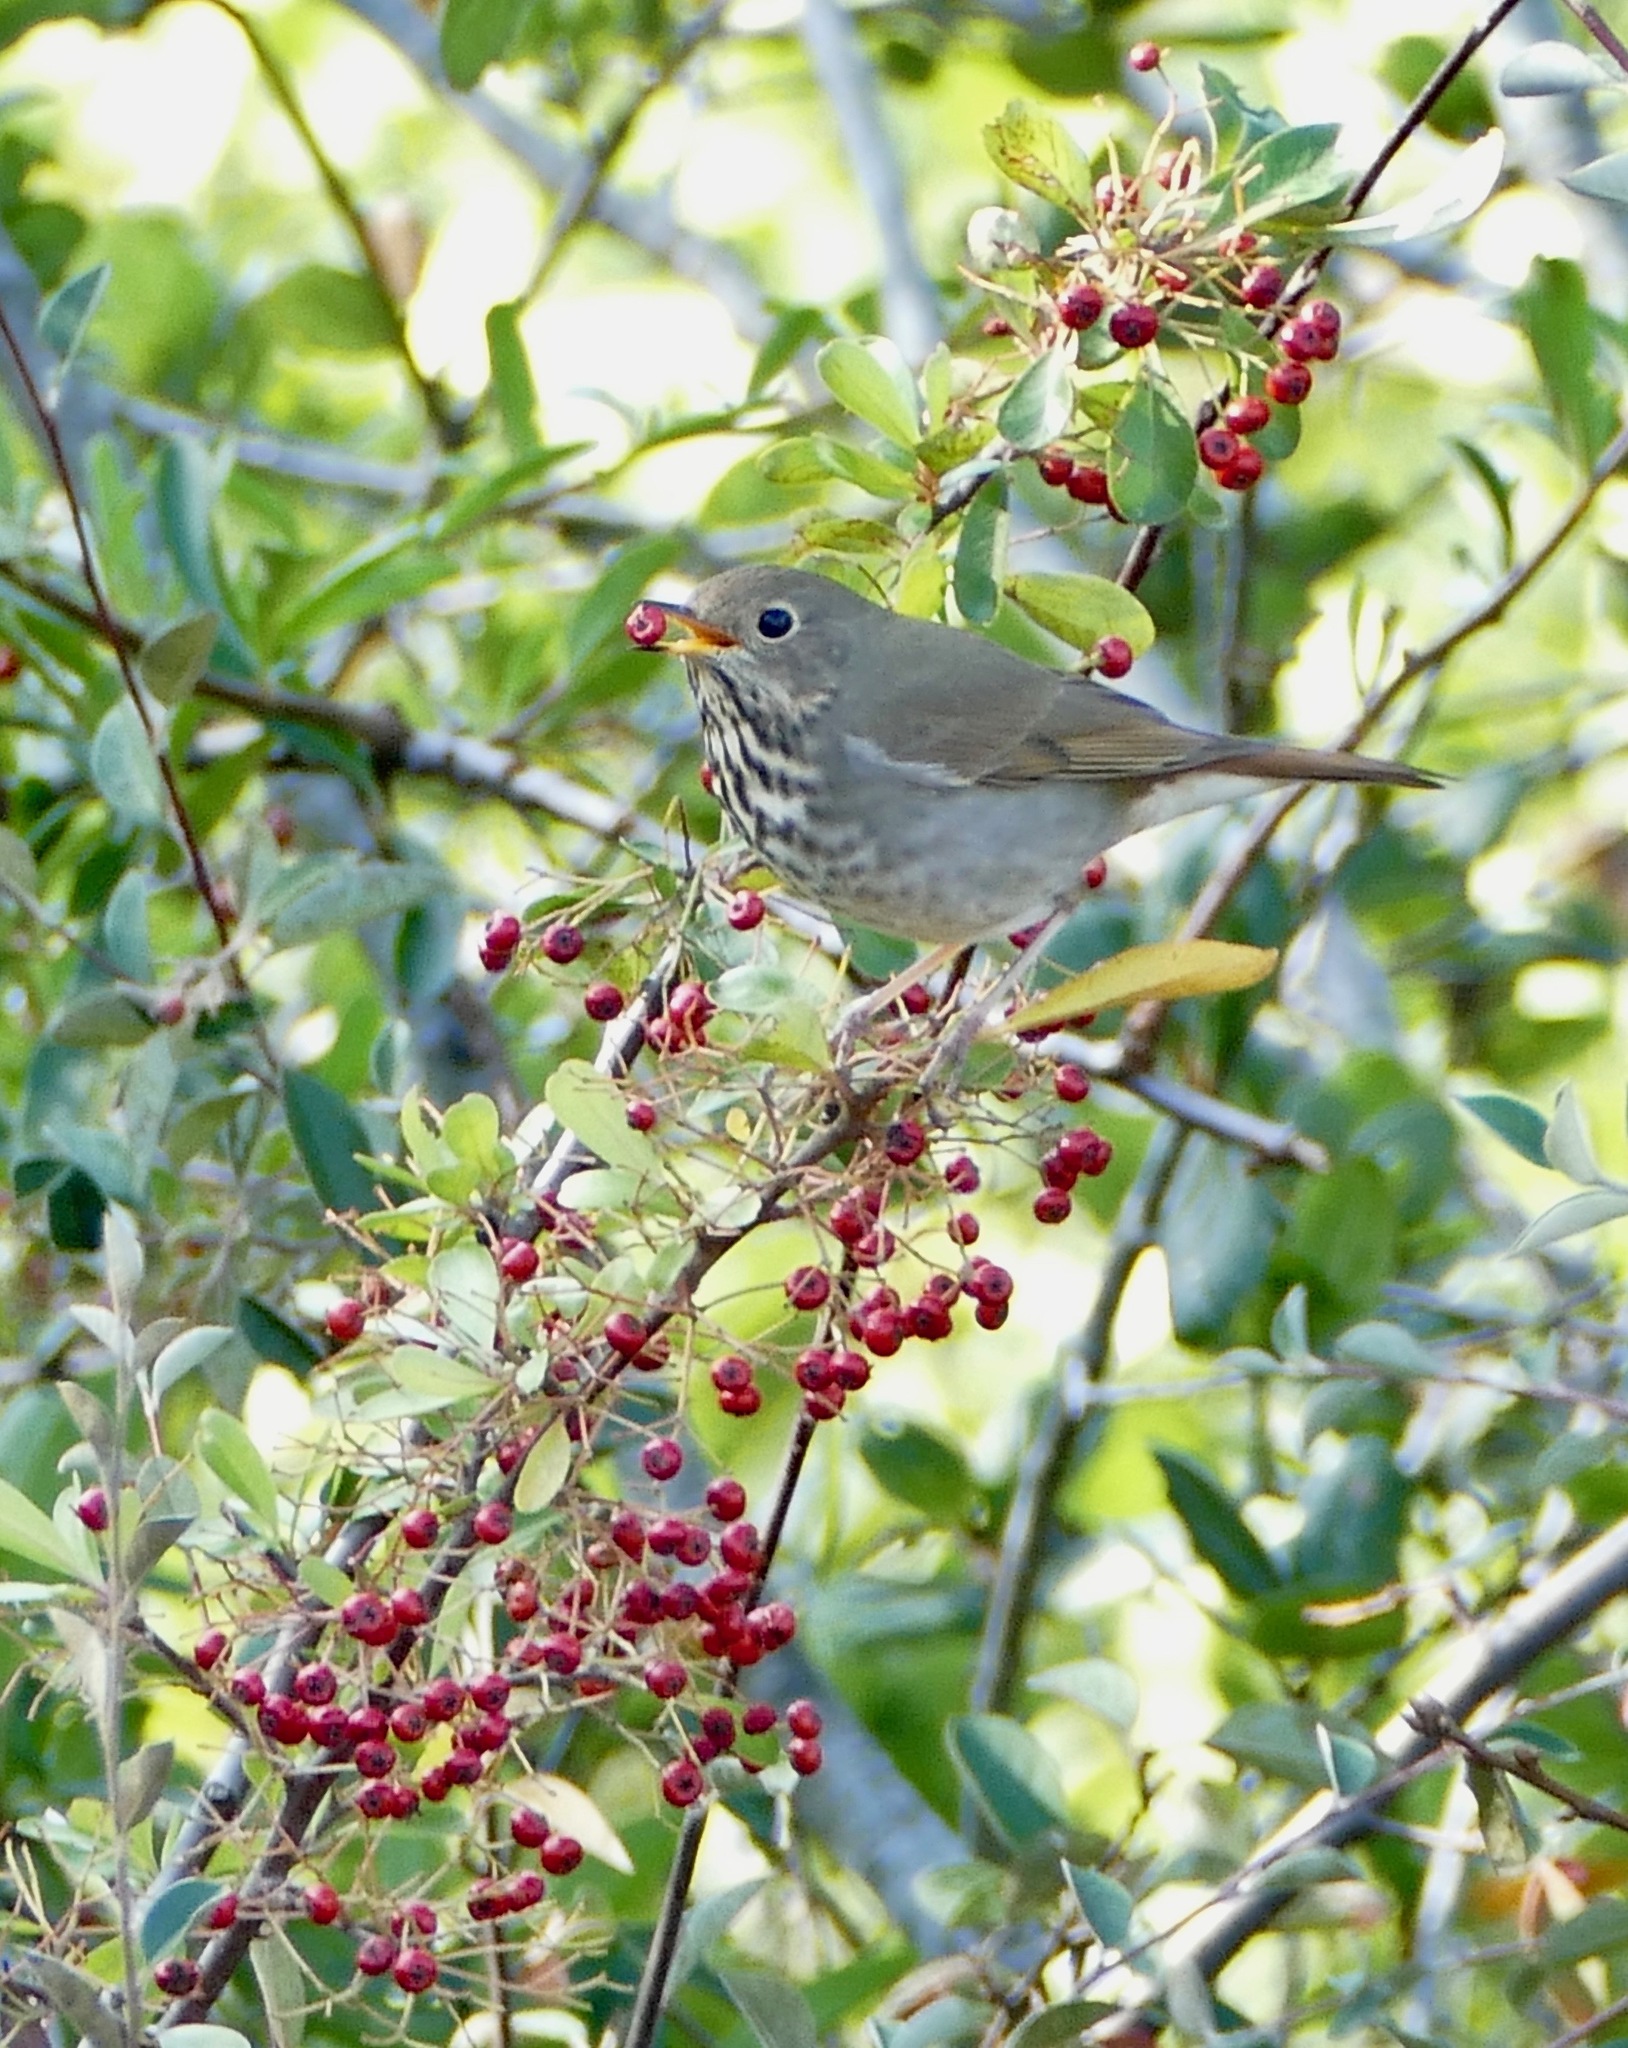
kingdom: Animalia
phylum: Chordata
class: Aves
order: Passeriformes
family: Turdidae
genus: Catharus
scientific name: Catharus guttatus
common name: Hermit thrush
